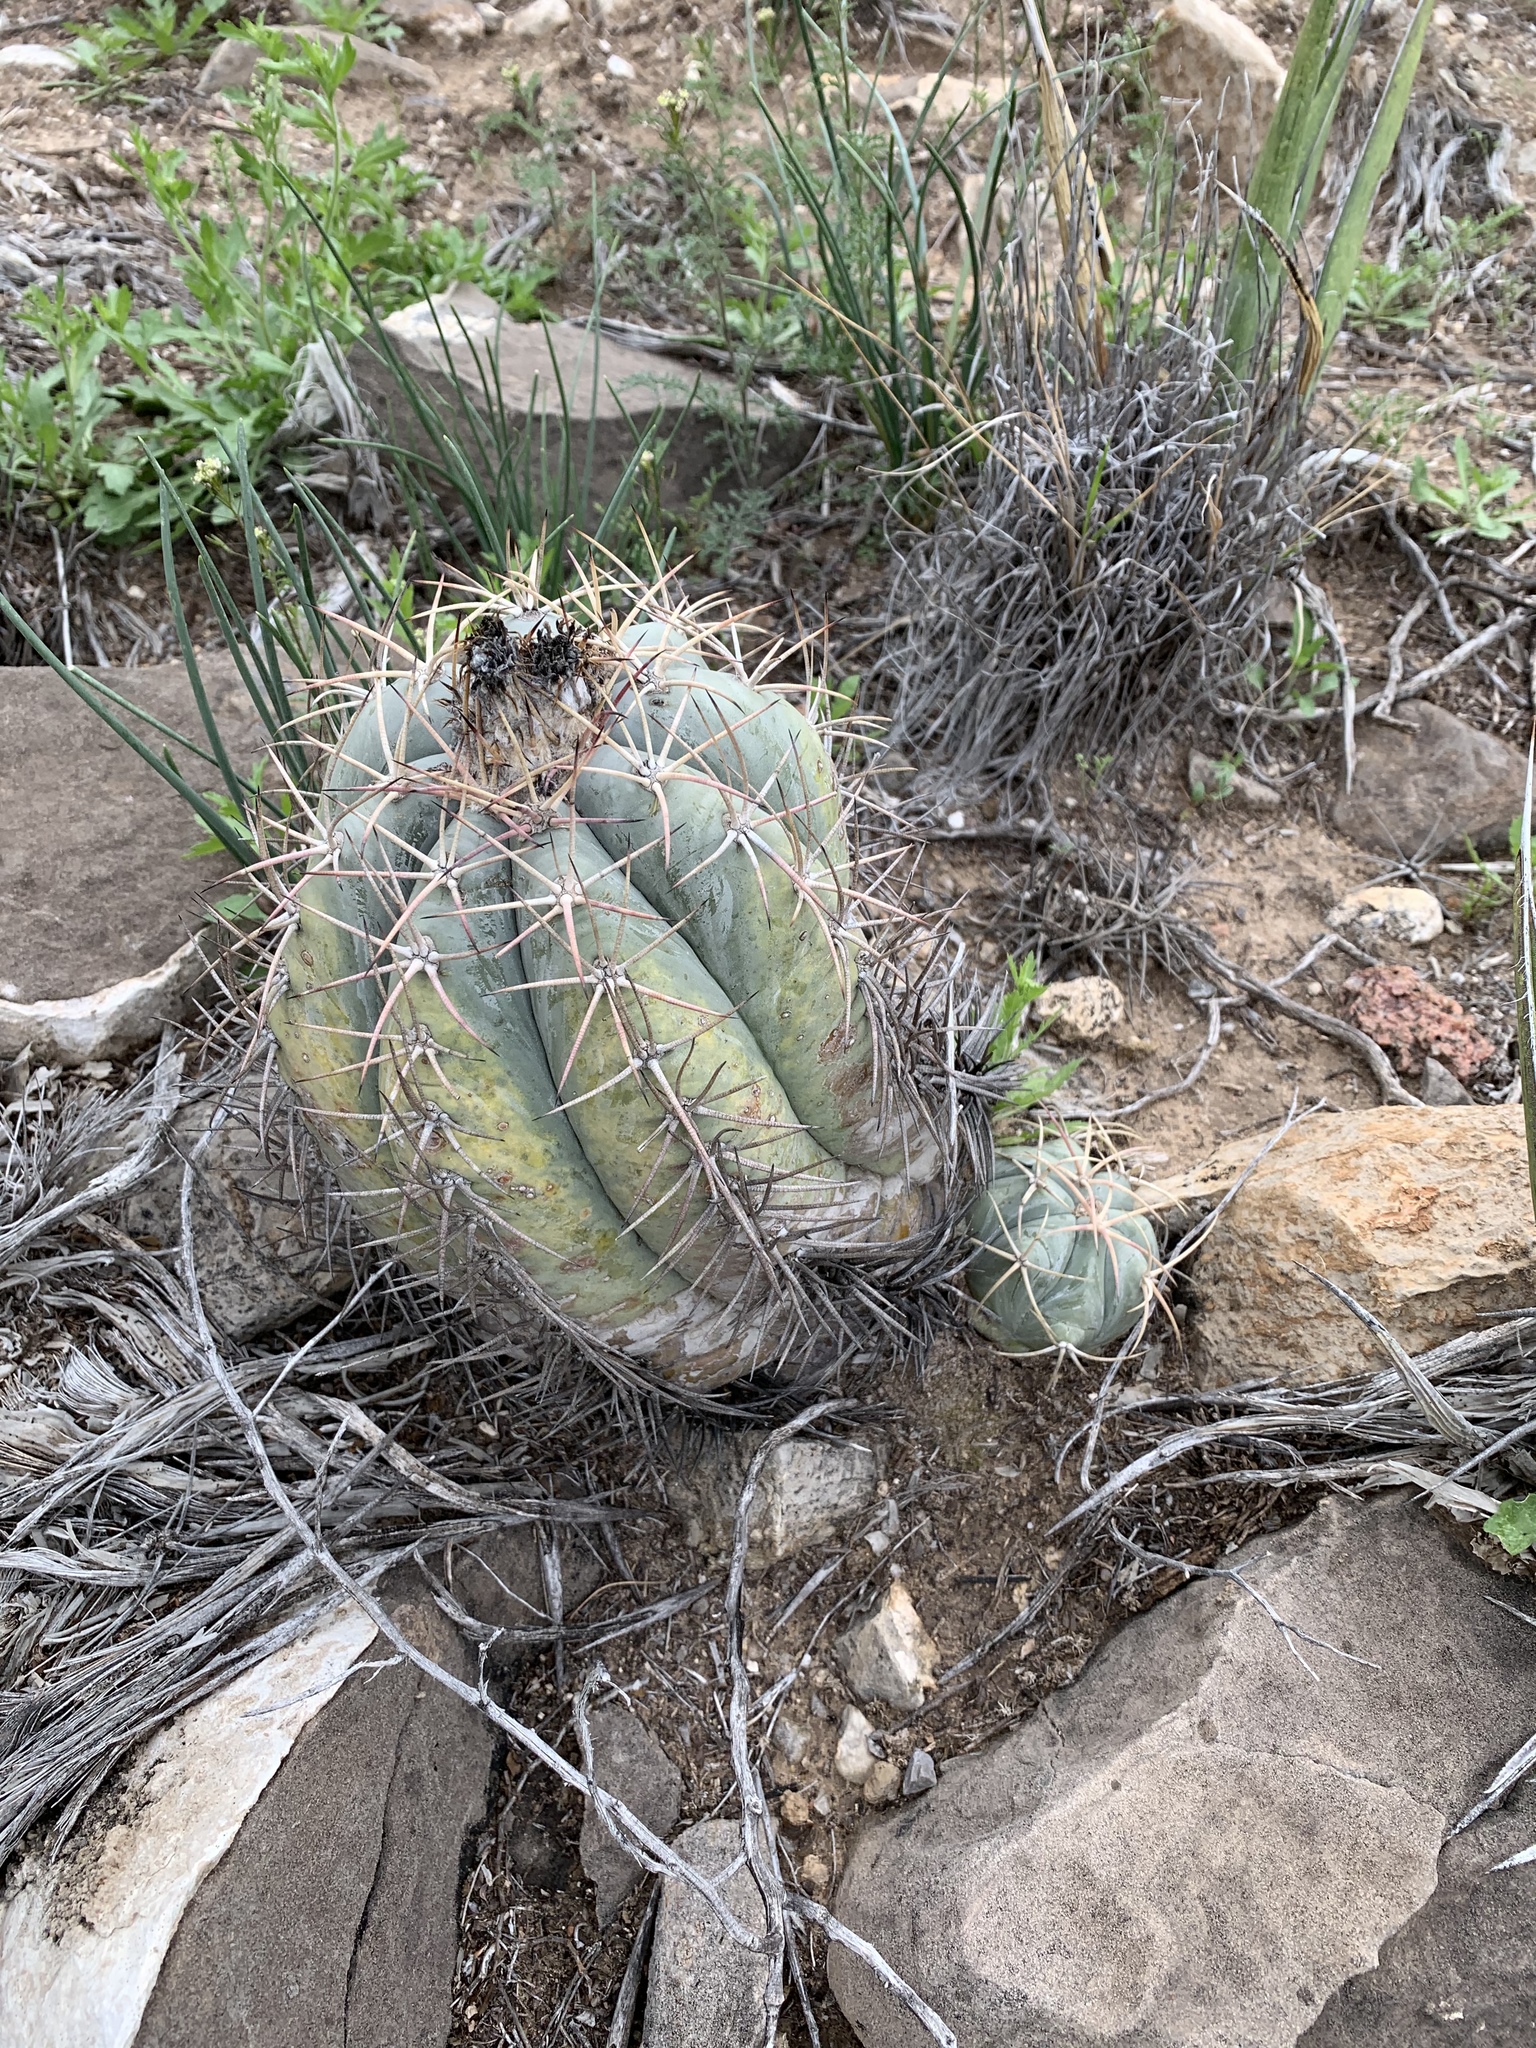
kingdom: Plantae
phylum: Tracheophyta
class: Magnoliopsida
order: Caryophyllales
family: Cactaceae
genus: Echinocactus
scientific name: Echinocactus horizonthalonius
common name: Devilshead
